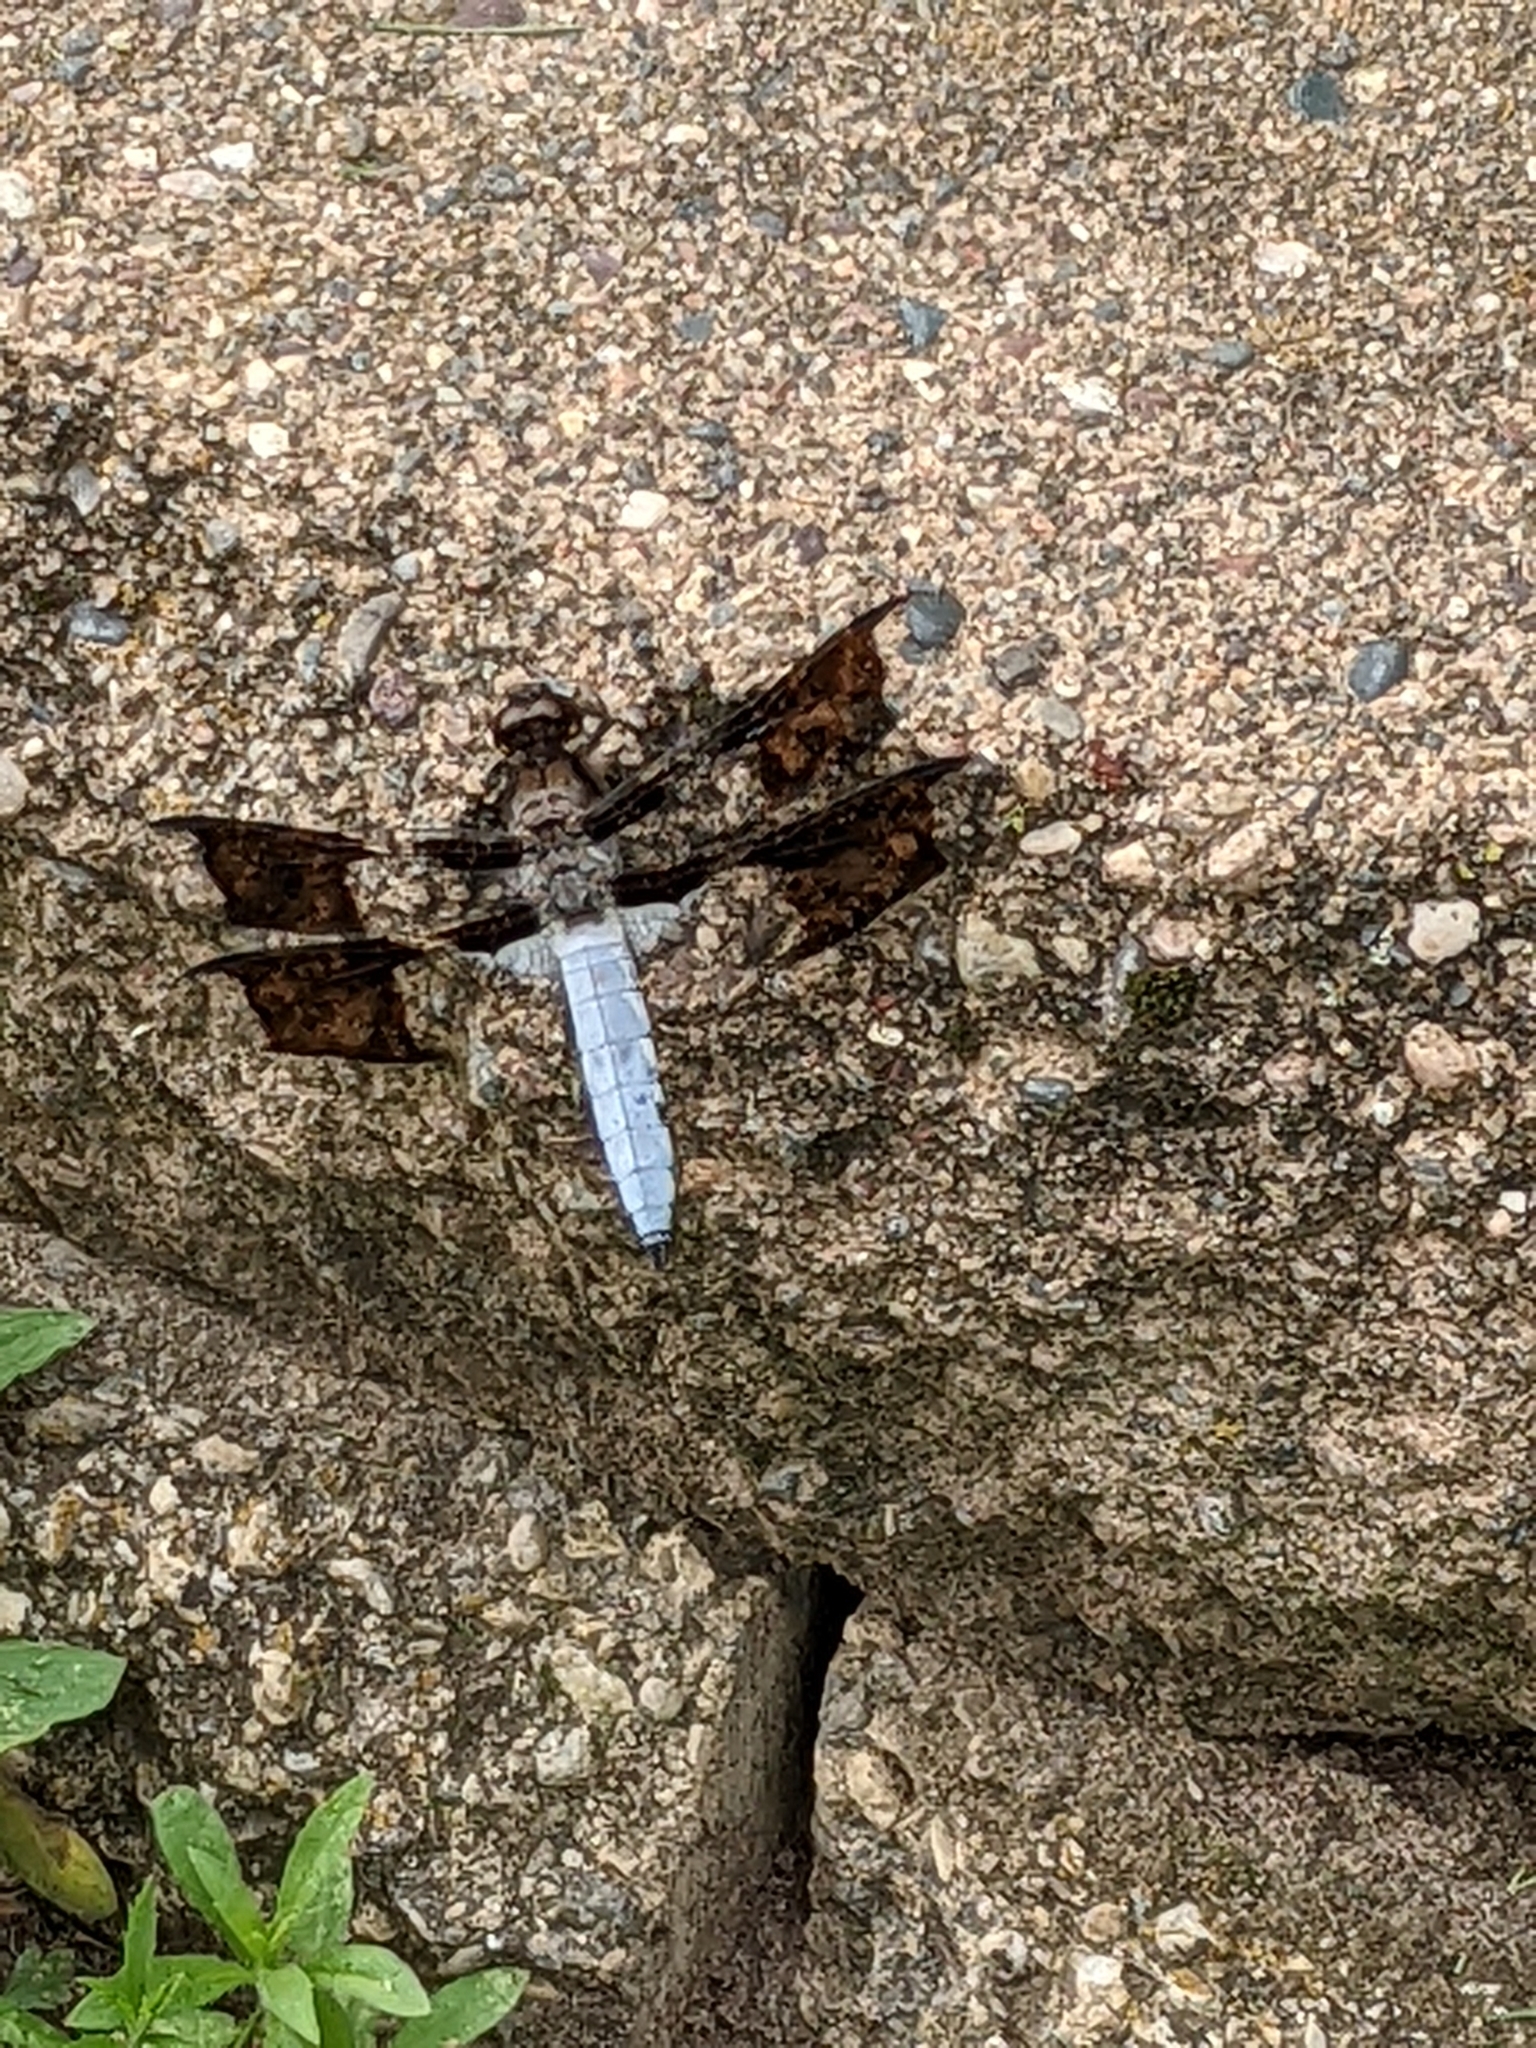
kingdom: Animalia
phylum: Arthropoda
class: Insecta
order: Odonata
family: Libellulidae
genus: Plathemis
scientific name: Plathemis lydia
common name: Common whitetail
